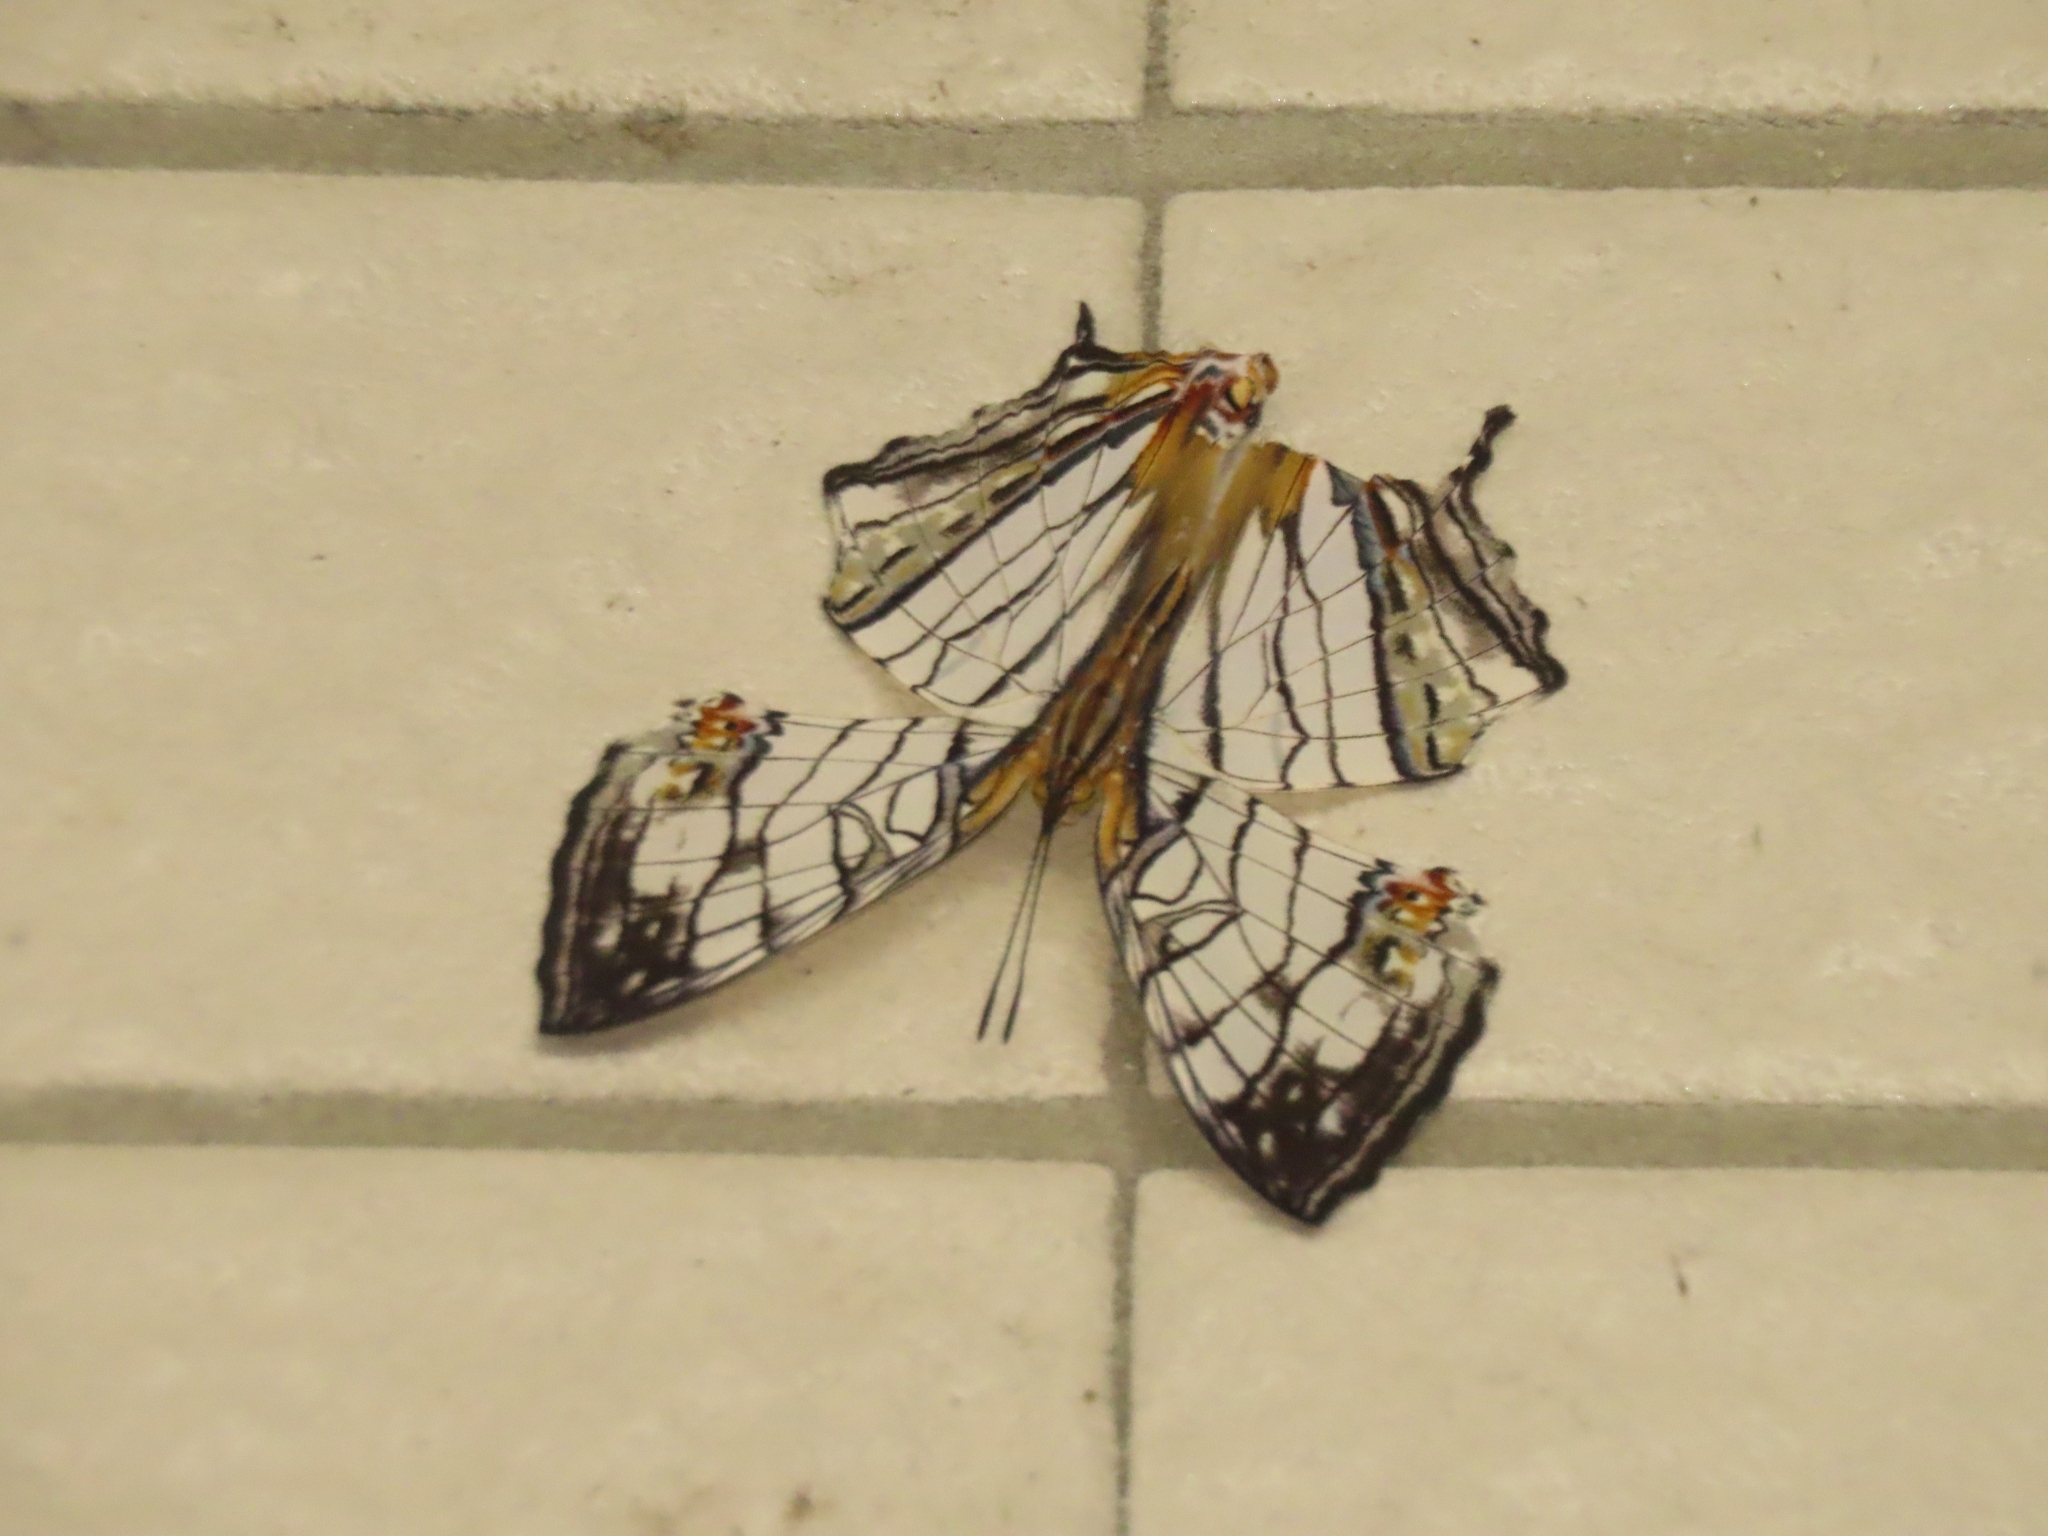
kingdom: Animalia
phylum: Arthropoda
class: Insecta
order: Lepidoptera
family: Nymphalidae
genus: Cyrestis
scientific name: Cyrestis thyodamas
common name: Common mapwing
